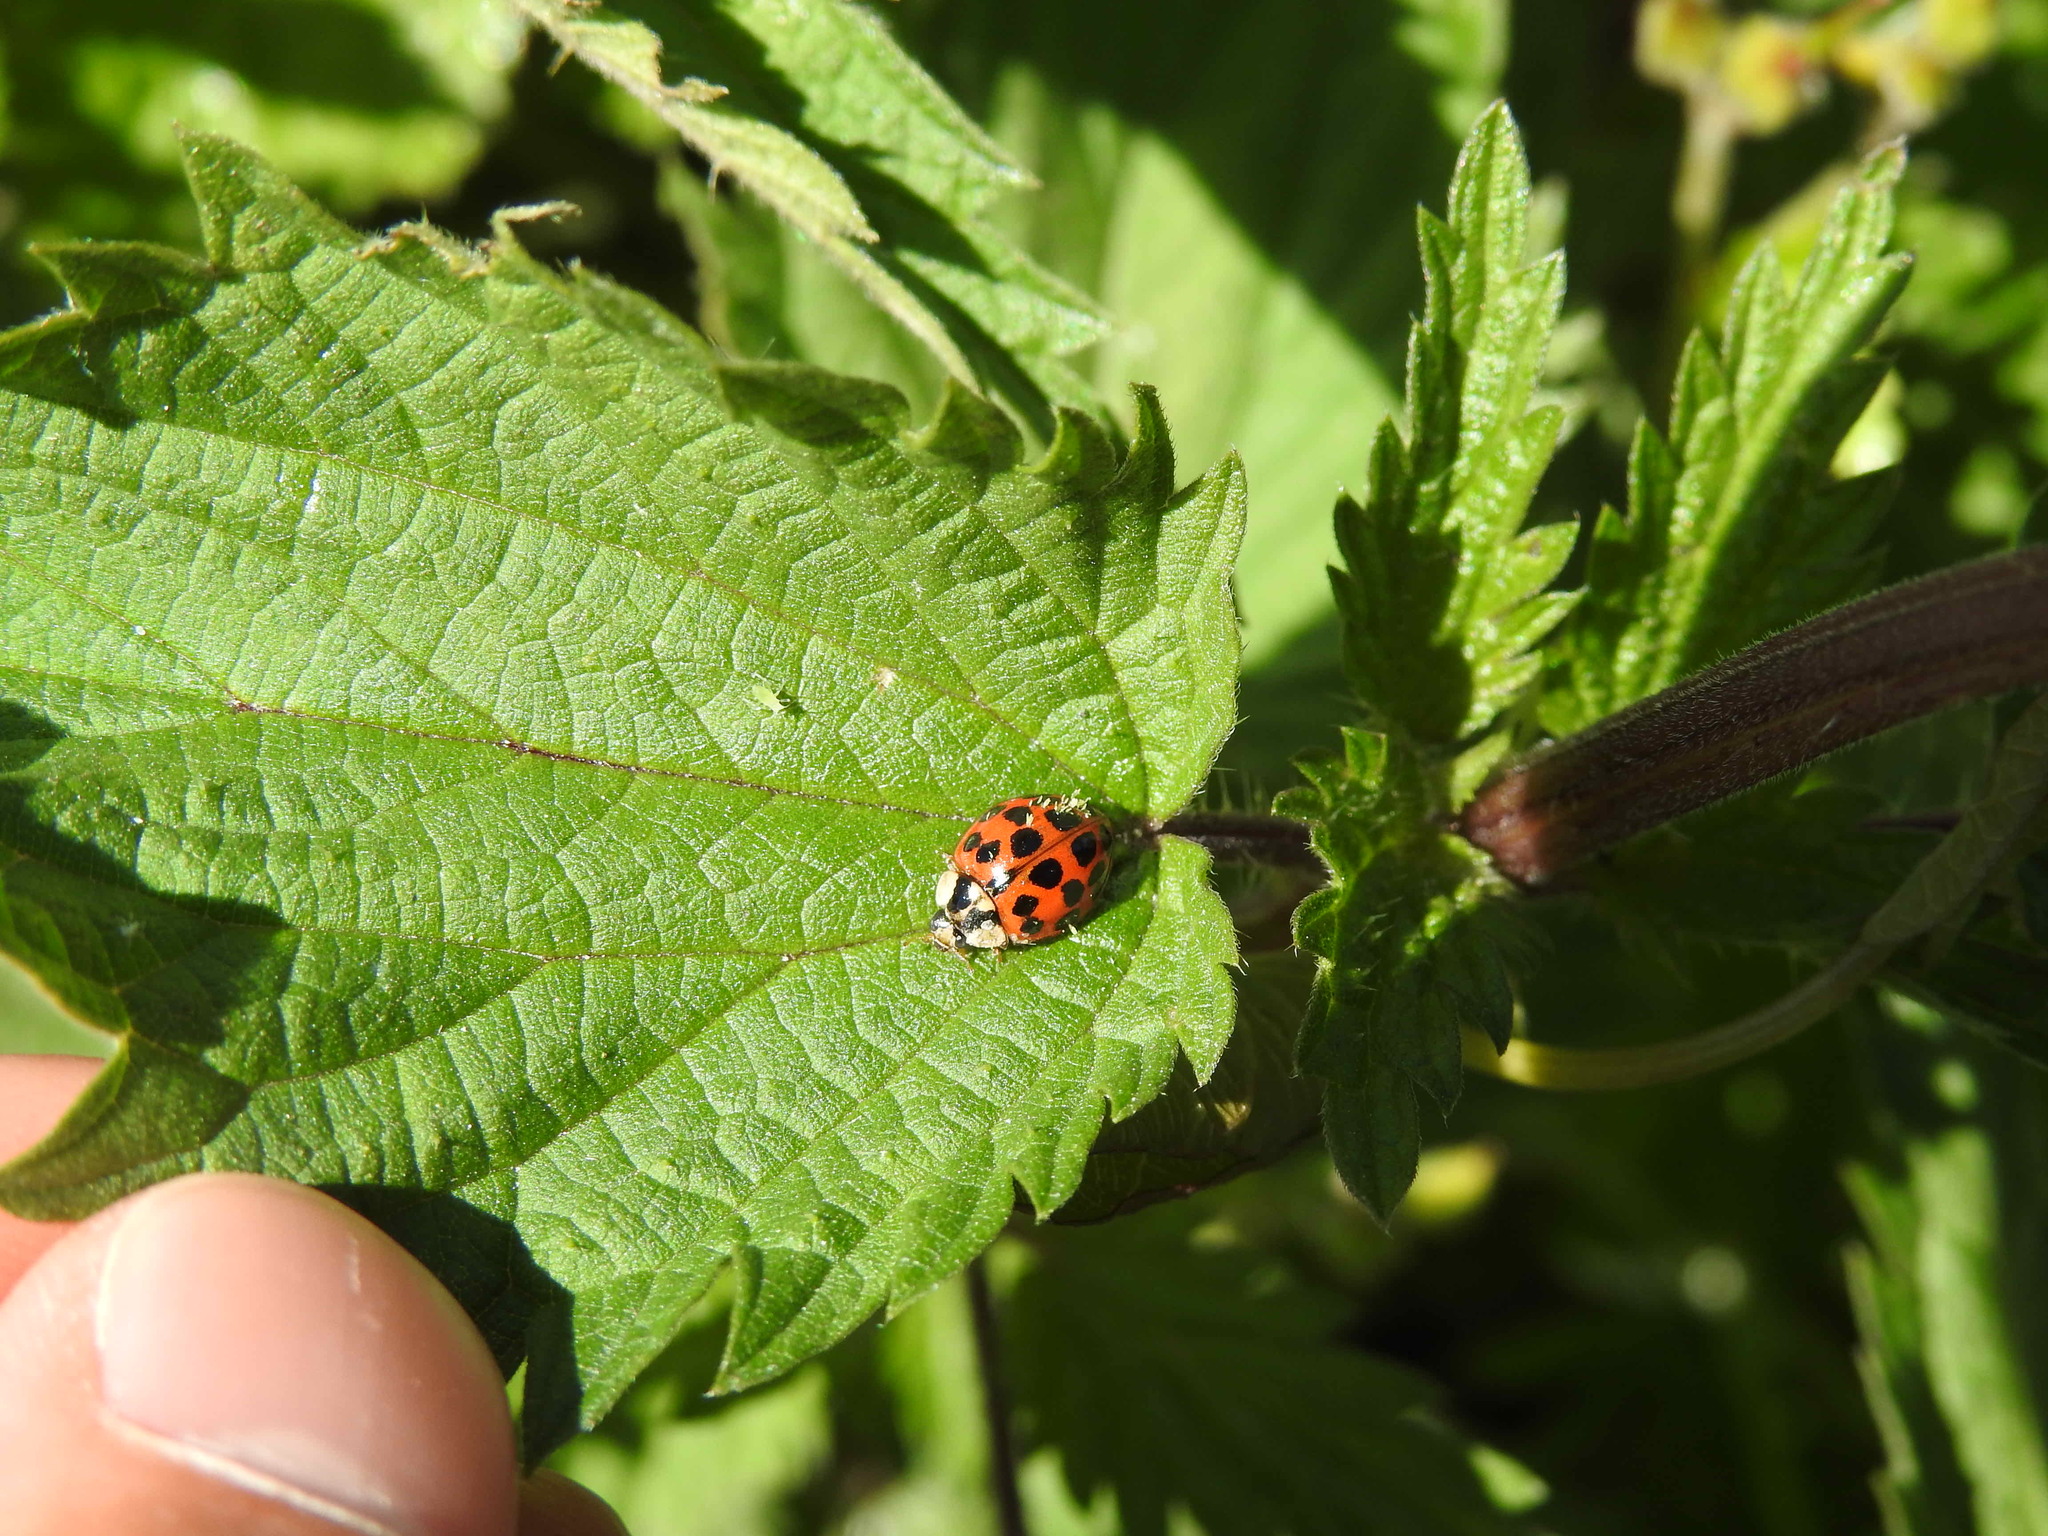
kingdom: Animalia
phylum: Arthropoda
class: Insecta
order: Coleoptera
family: Coccinellidae
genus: Harmonia
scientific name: Harmonia axyridis
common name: Harlequin ladybird
